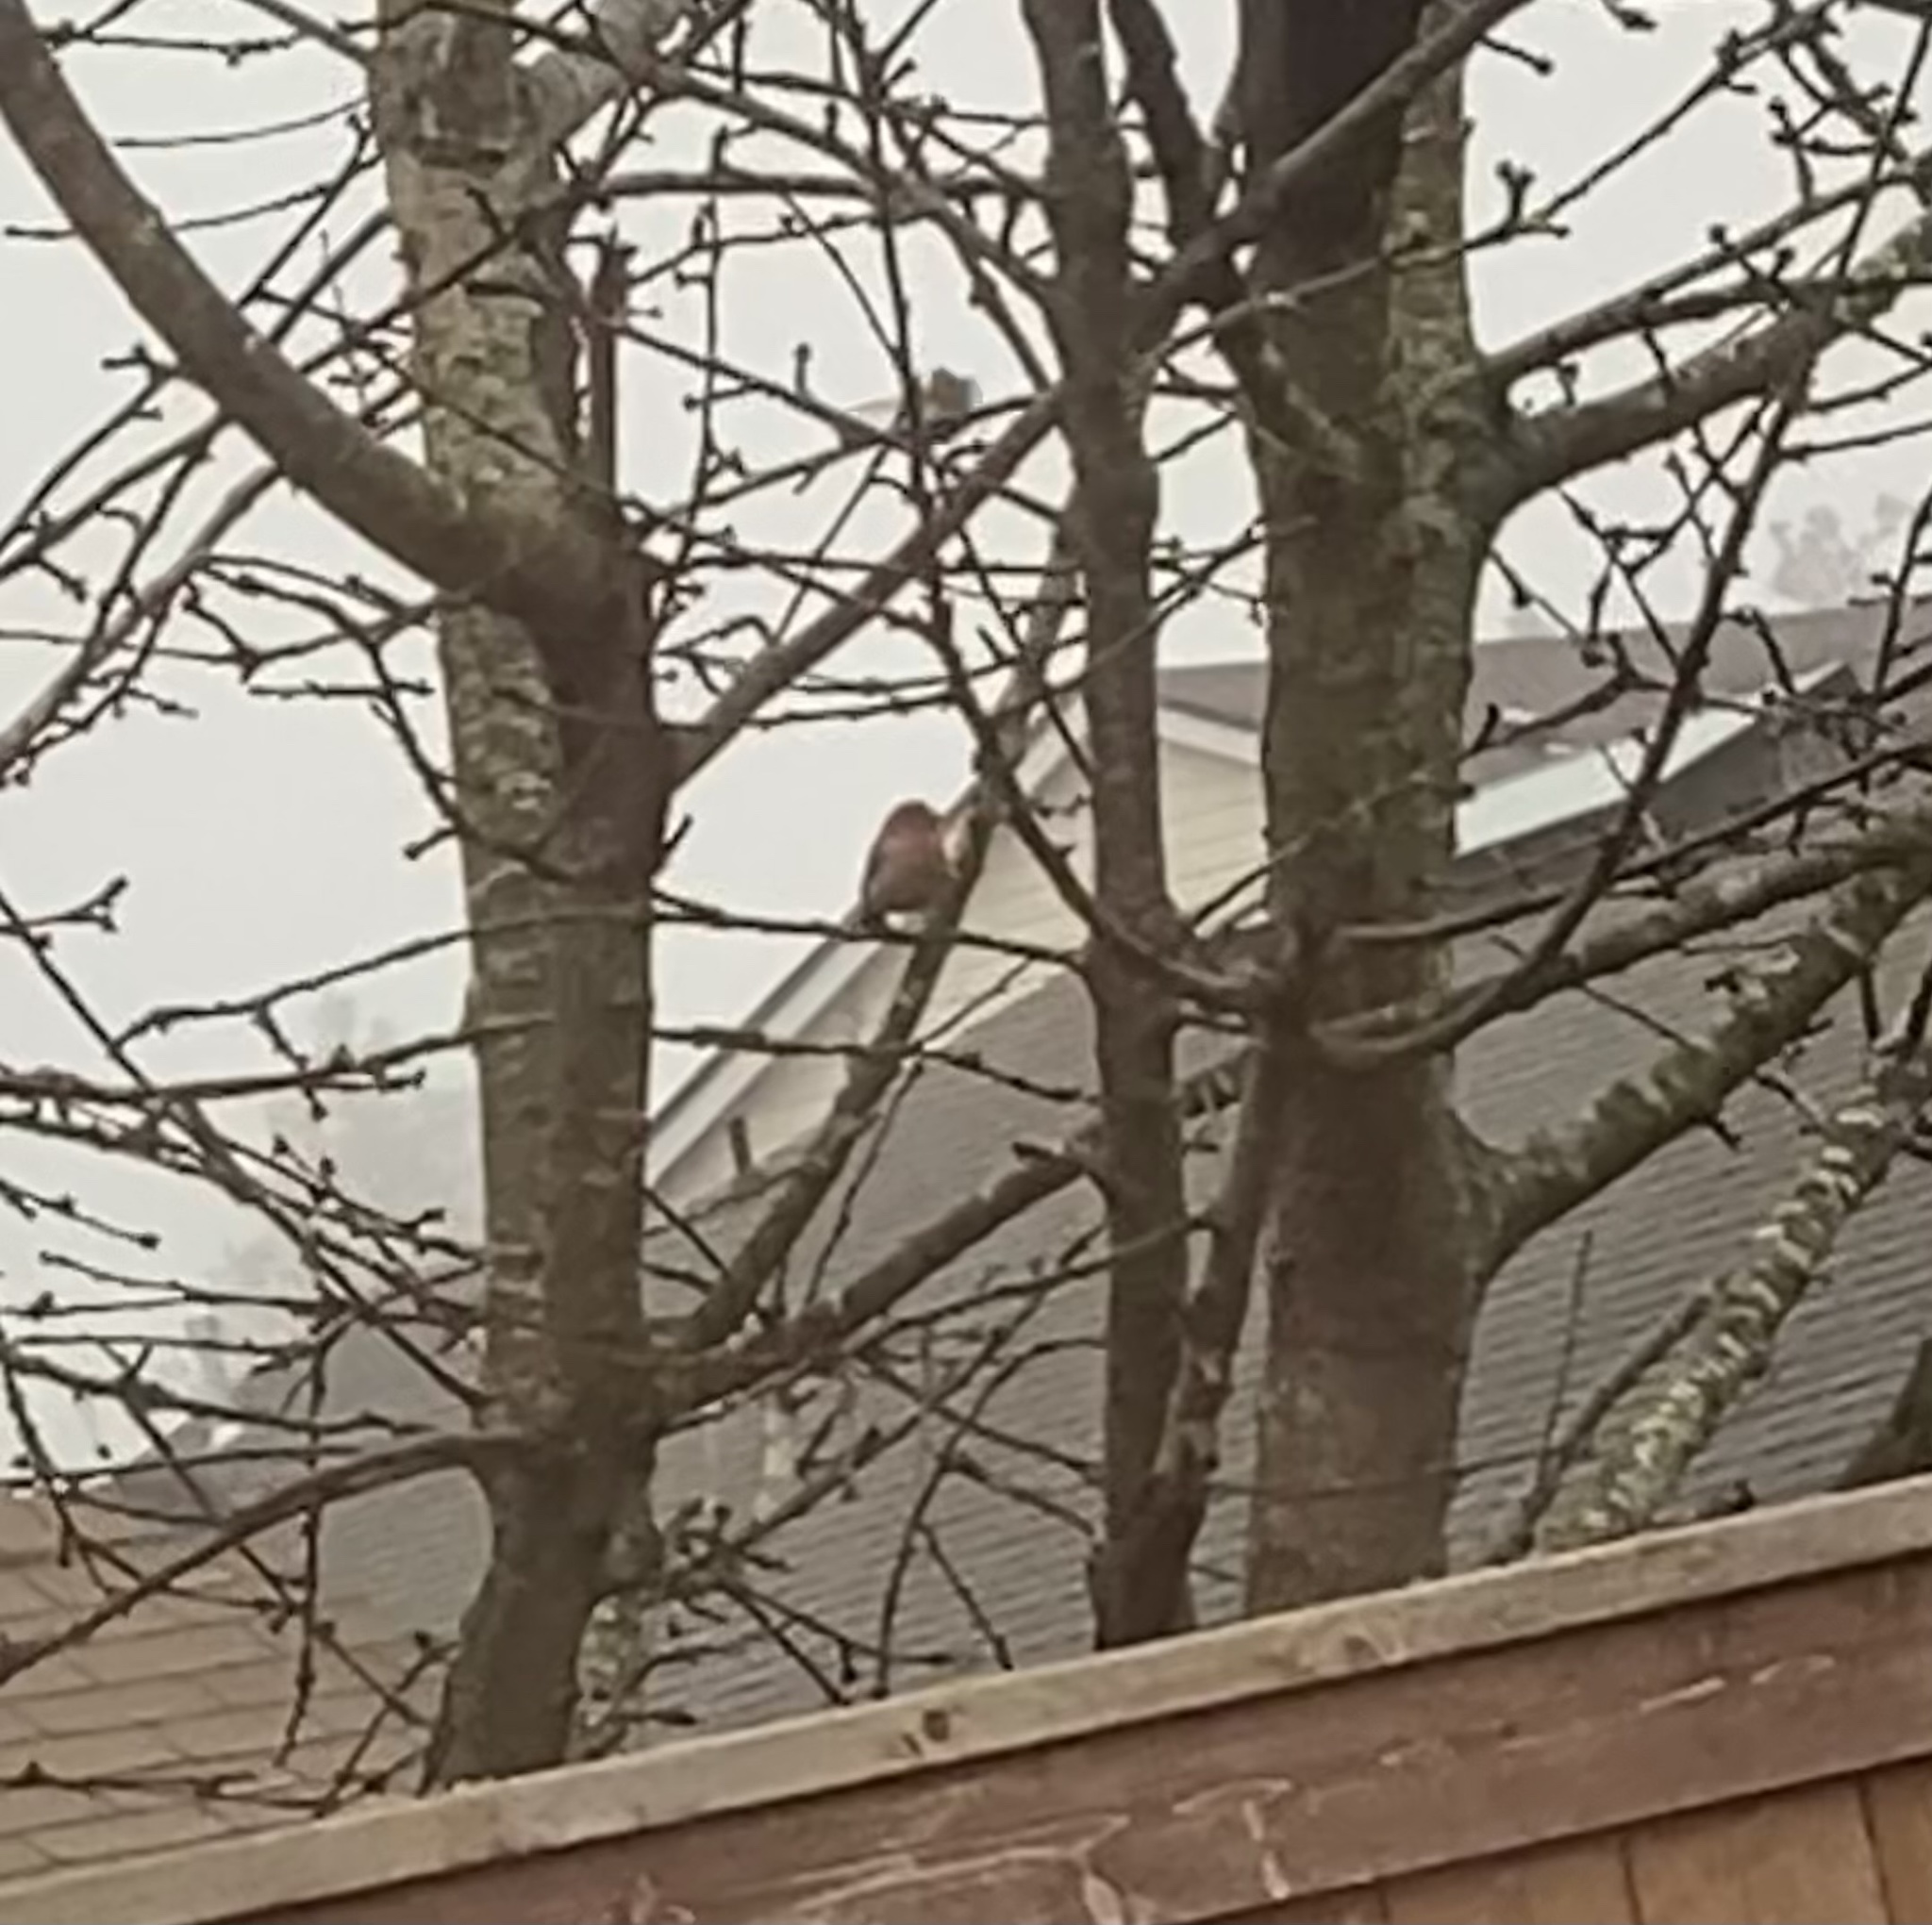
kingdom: Animalia
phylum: Chordata
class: Aves
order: Passeriformes
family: Fringillidae
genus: Haemorhous
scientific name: Haemorhous mexicanus
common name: House finch
